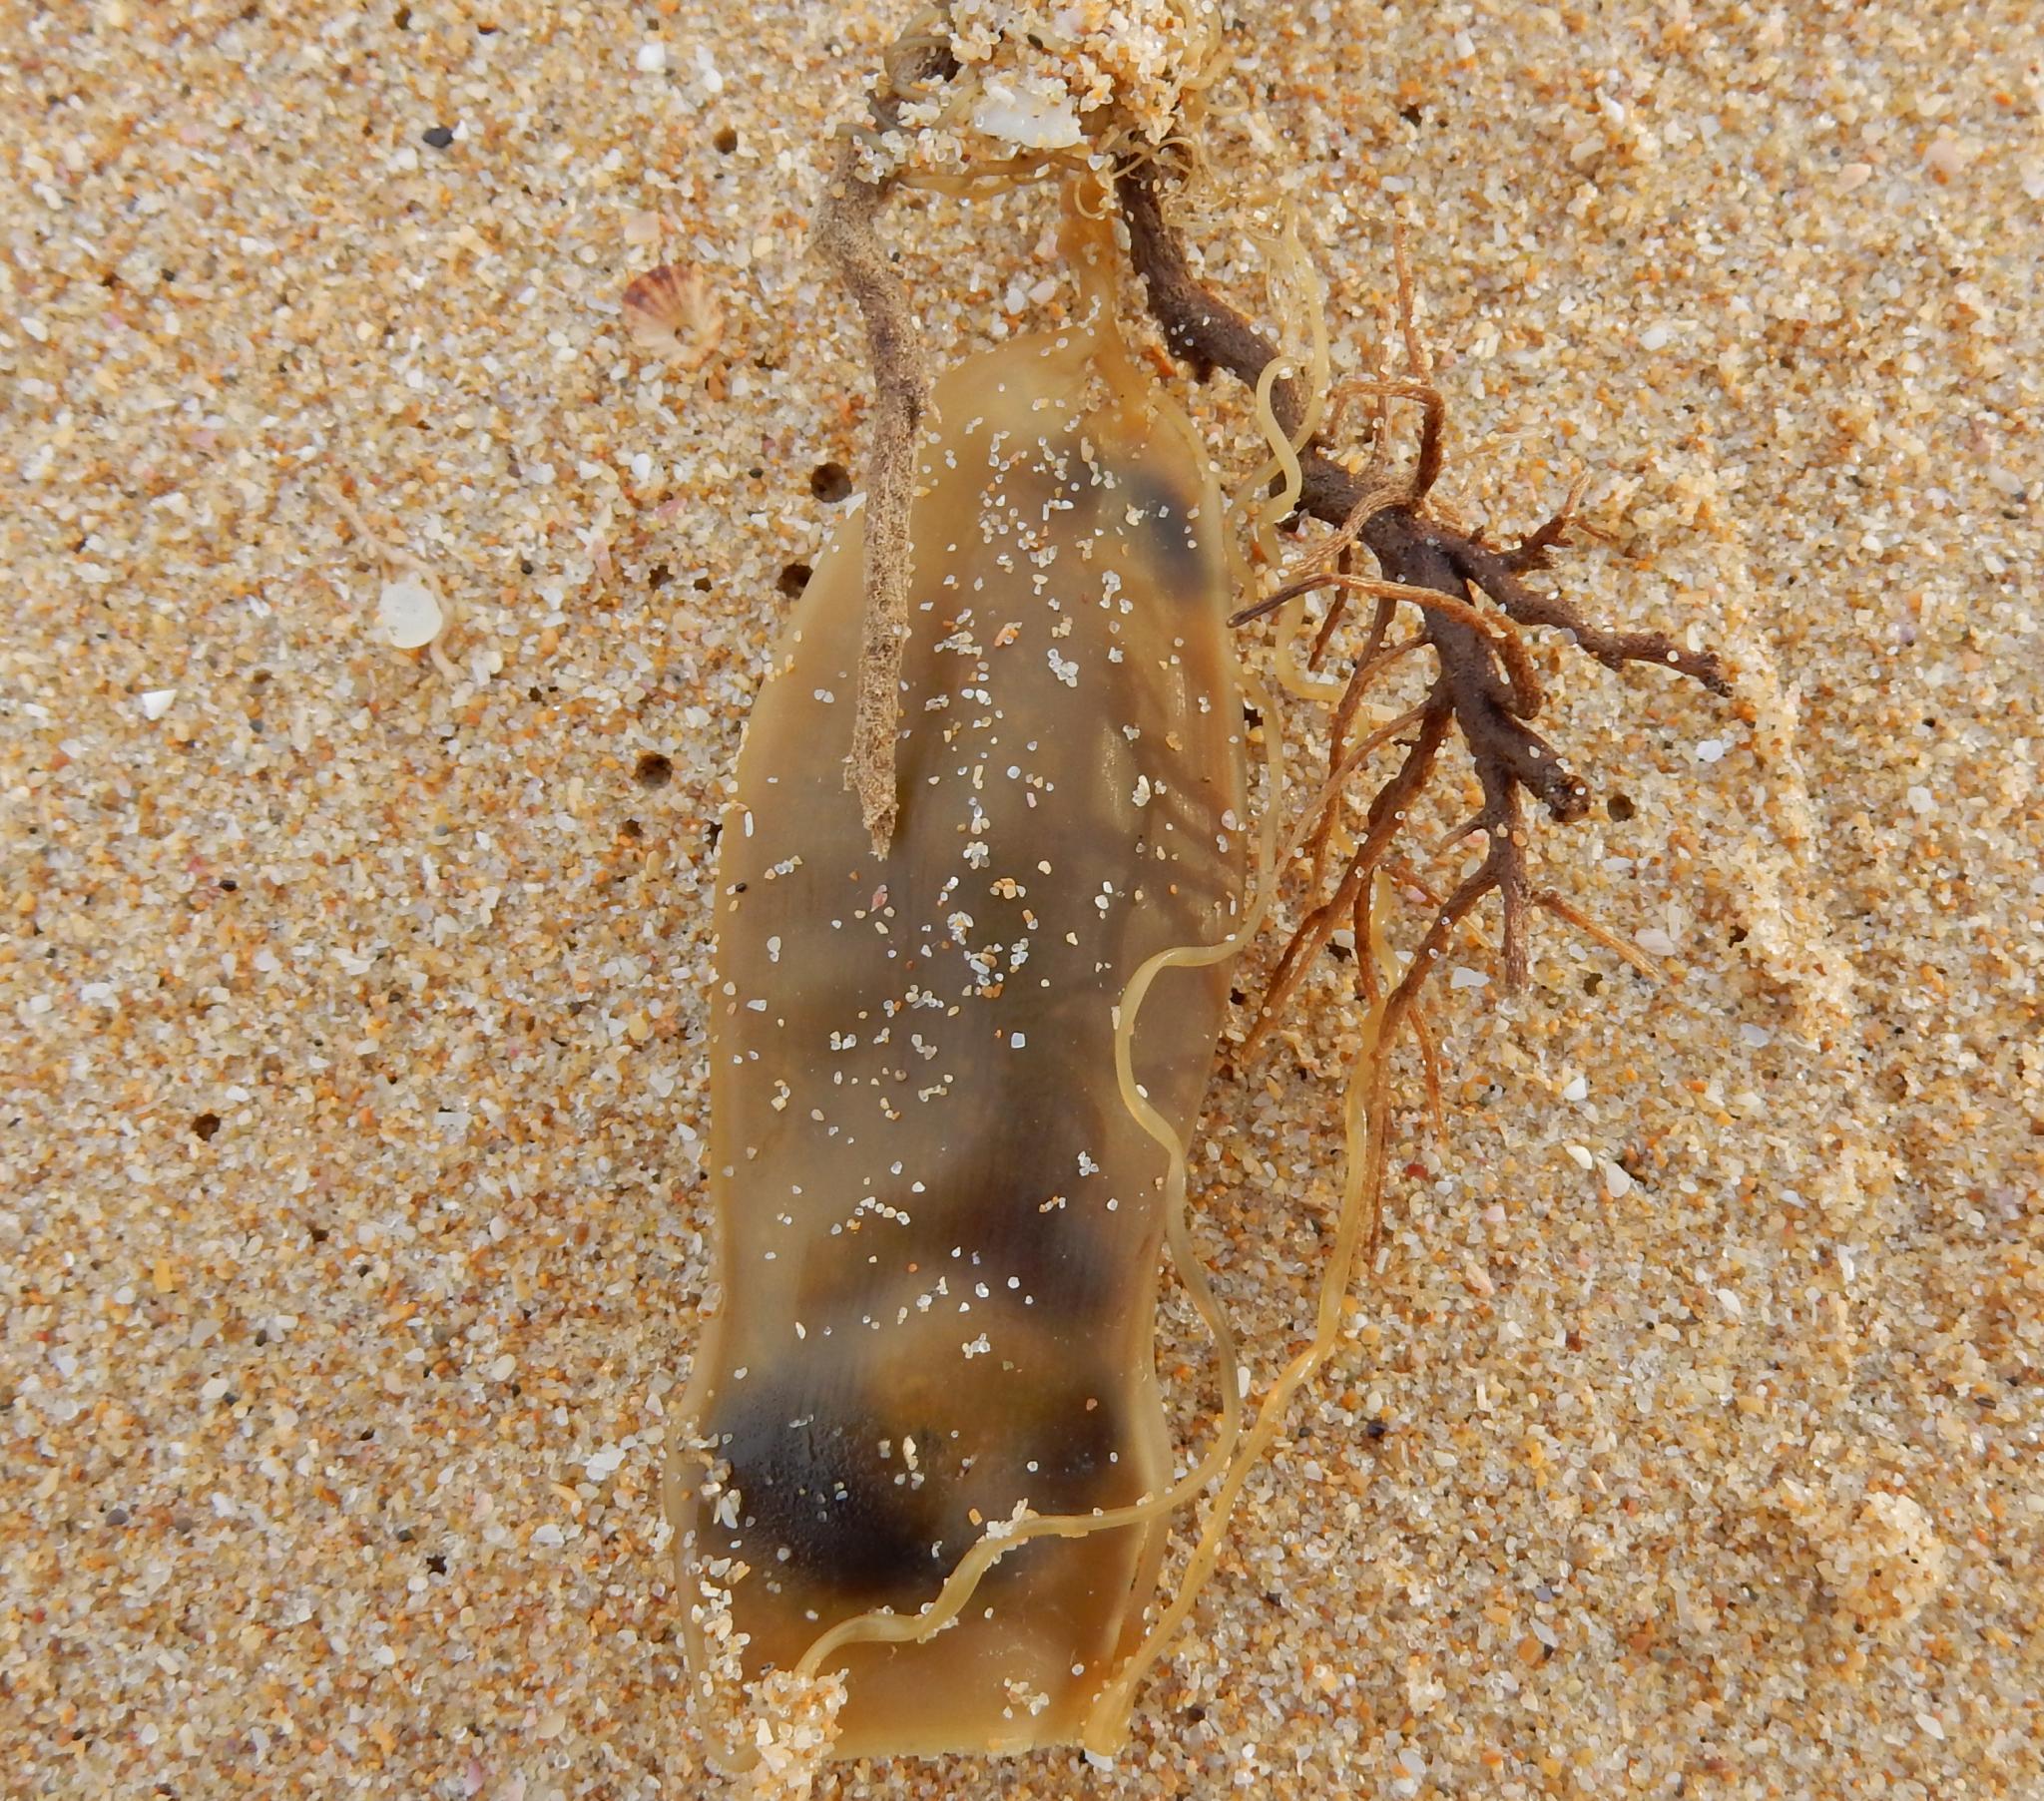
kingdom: Animalia
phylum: Chordata
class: Elasmobranchii
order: Carcharhiniformes
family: Scyliorhinidae
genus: Poroderma
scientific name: Poroderma pantherinum
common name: Leopard catshark
